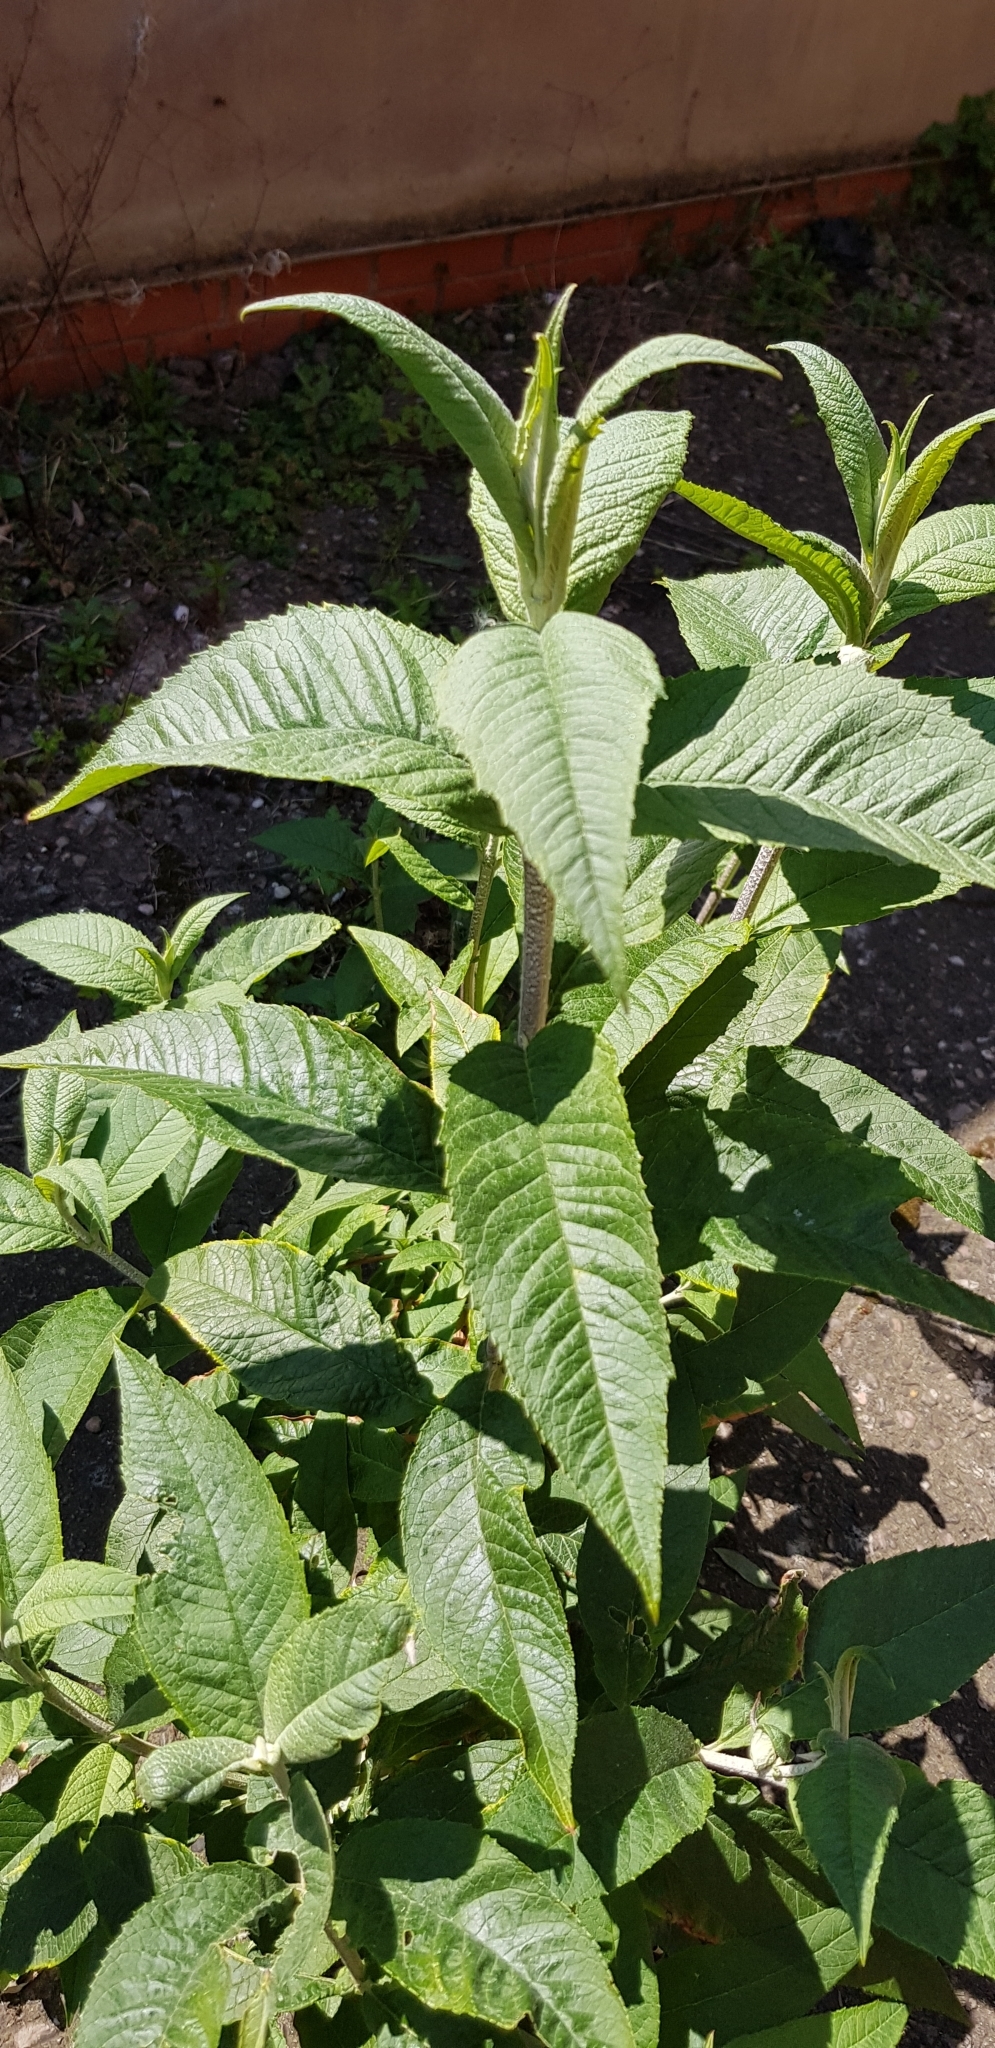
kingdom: Plantae
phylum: Tracheophyta
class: Magnoliopsida
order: Lamiales
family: Scrophulariaceae
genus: Buddleja
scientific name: Buddleja davidii
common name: Butterfly-bush
